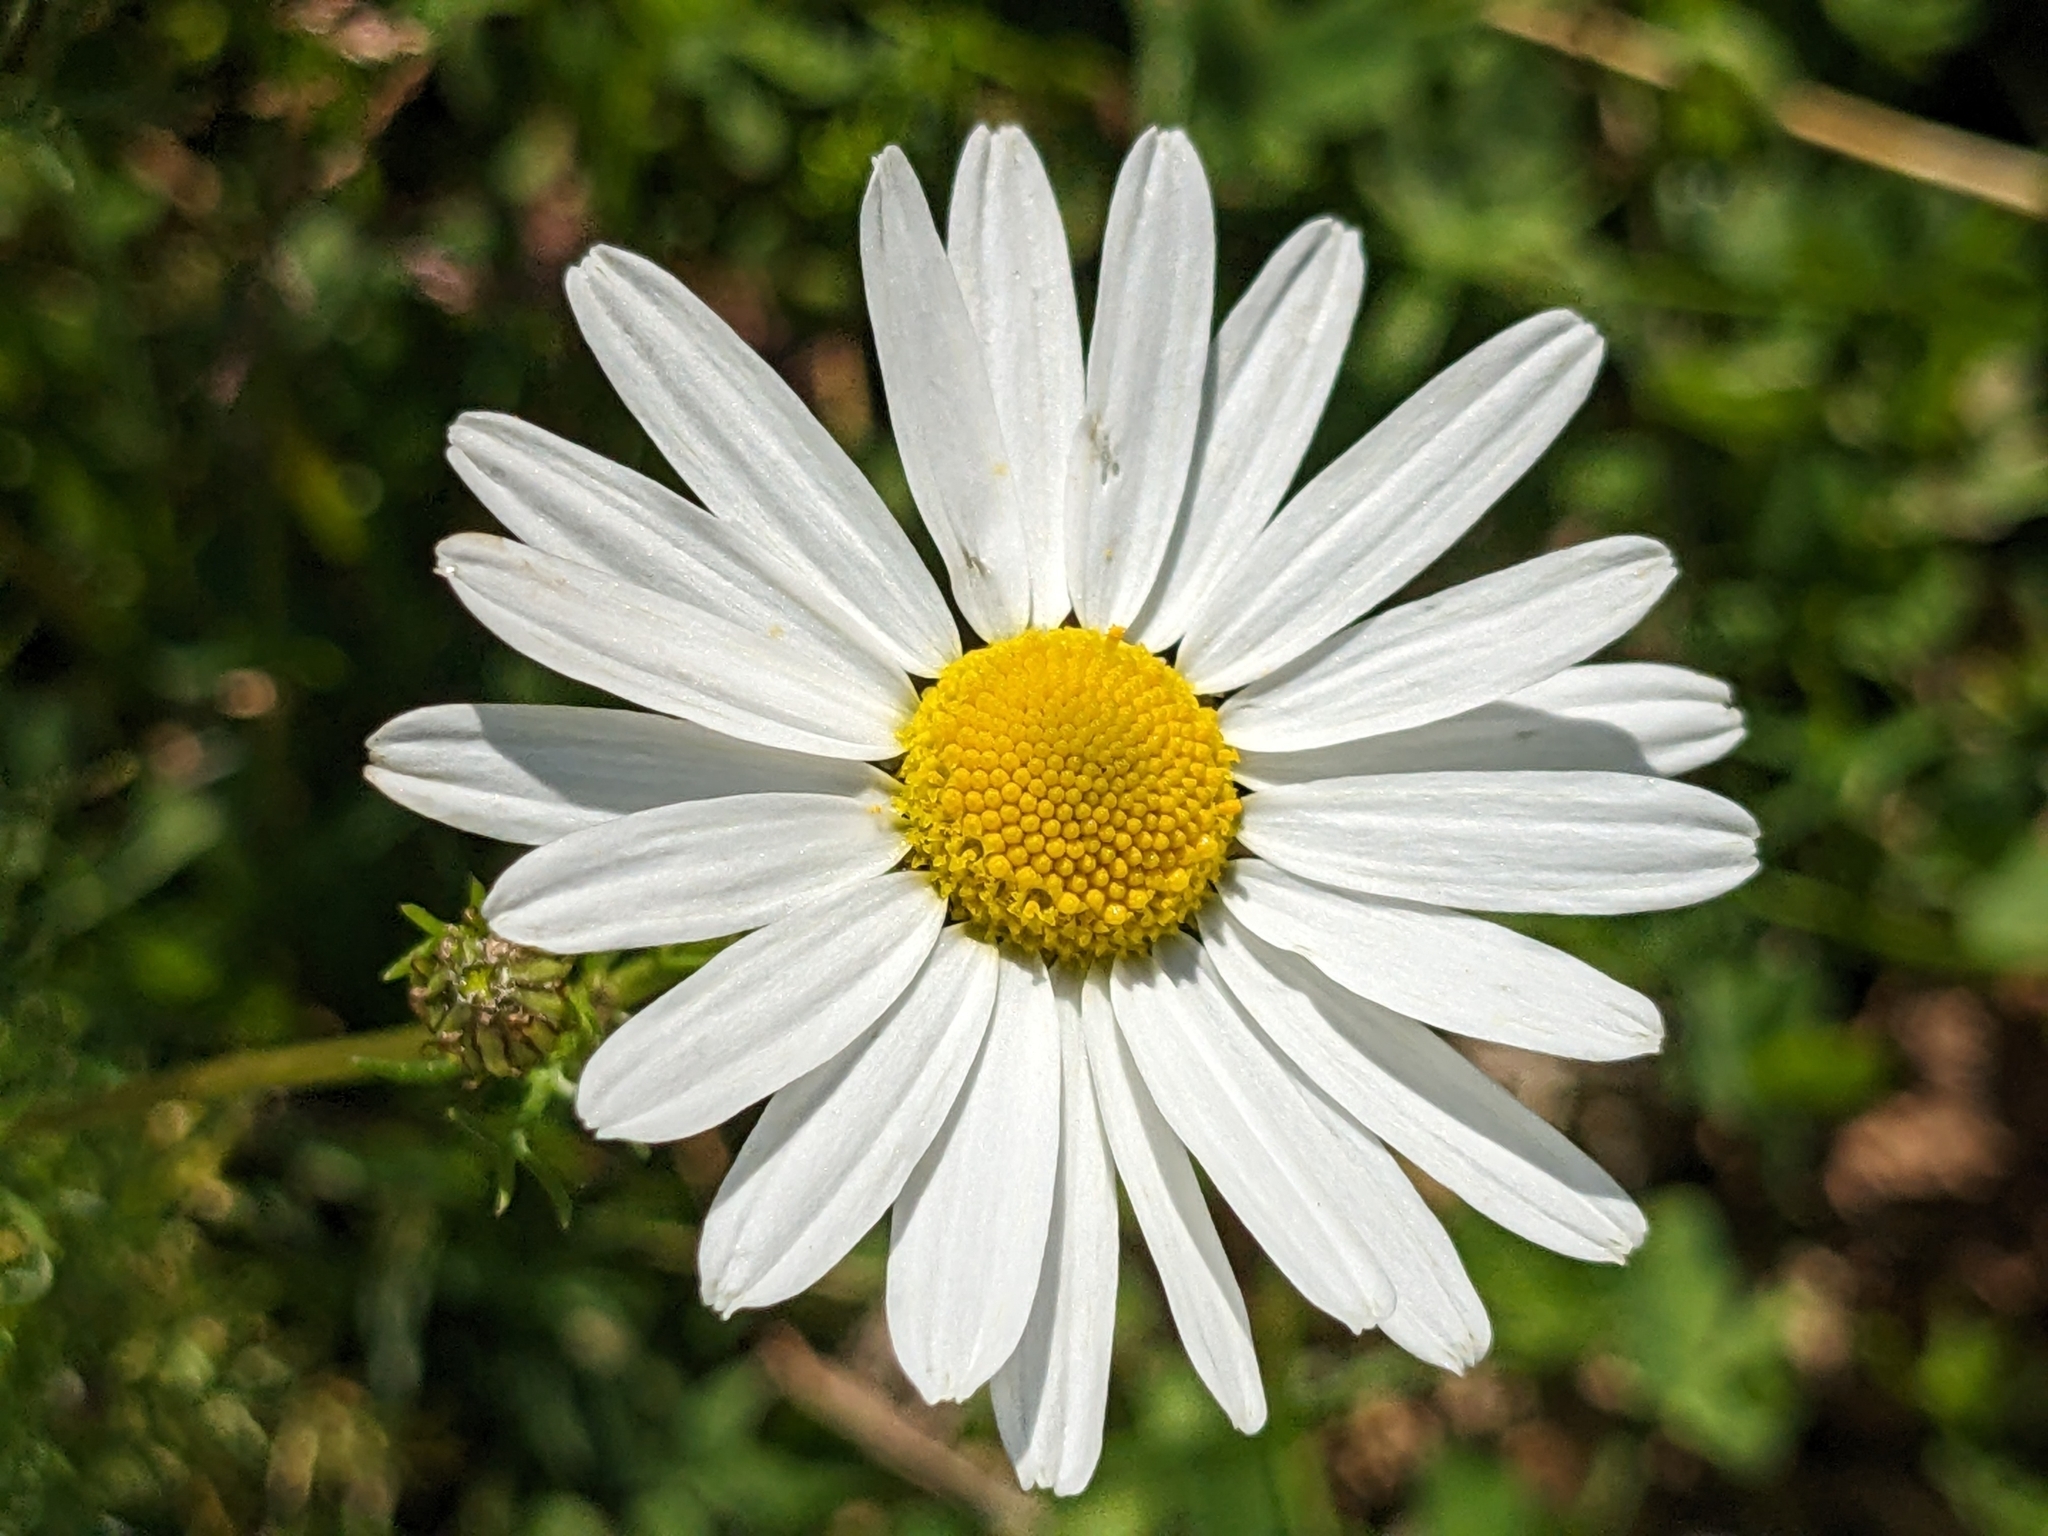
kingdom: Plantae
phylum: Tracheophyta
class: Magnoliopsida
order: Asterales
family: Asteraceae
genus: Tripleurospermum
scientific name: Tripleurospermum inodorum
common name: Scentless mayweed
